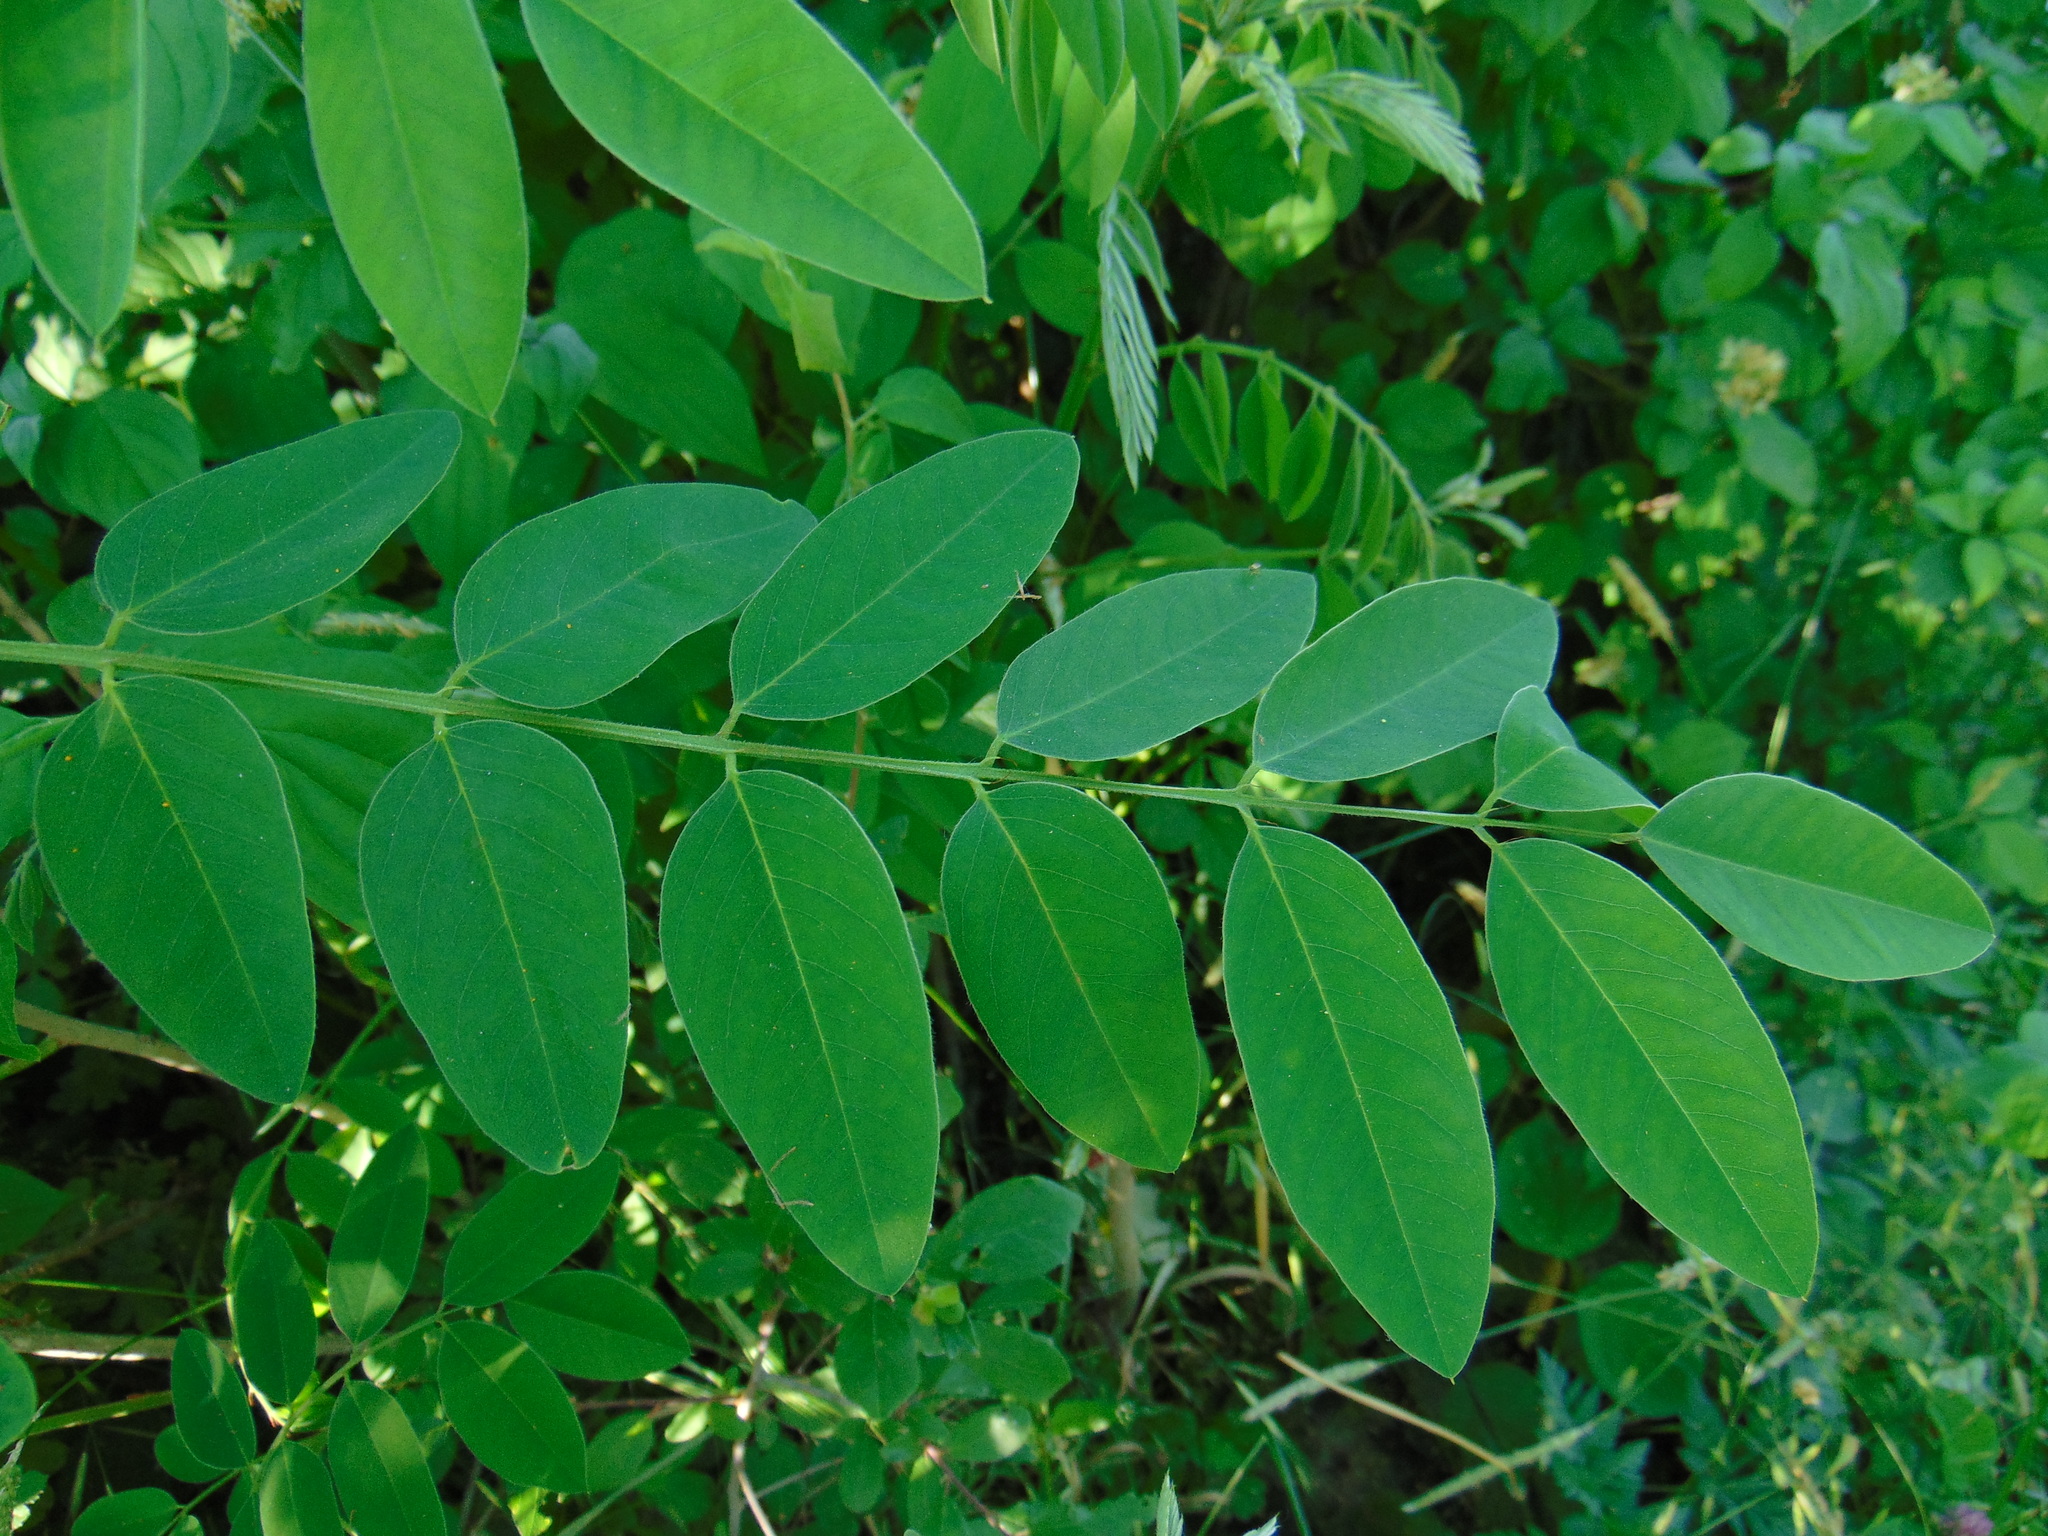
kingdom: Plantae
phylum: Tracheophyta
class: Magnoliopsida
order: Fabales
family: Fabaceae
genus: Amorpha
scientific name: Amorpha fruticosa
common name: False indigo
